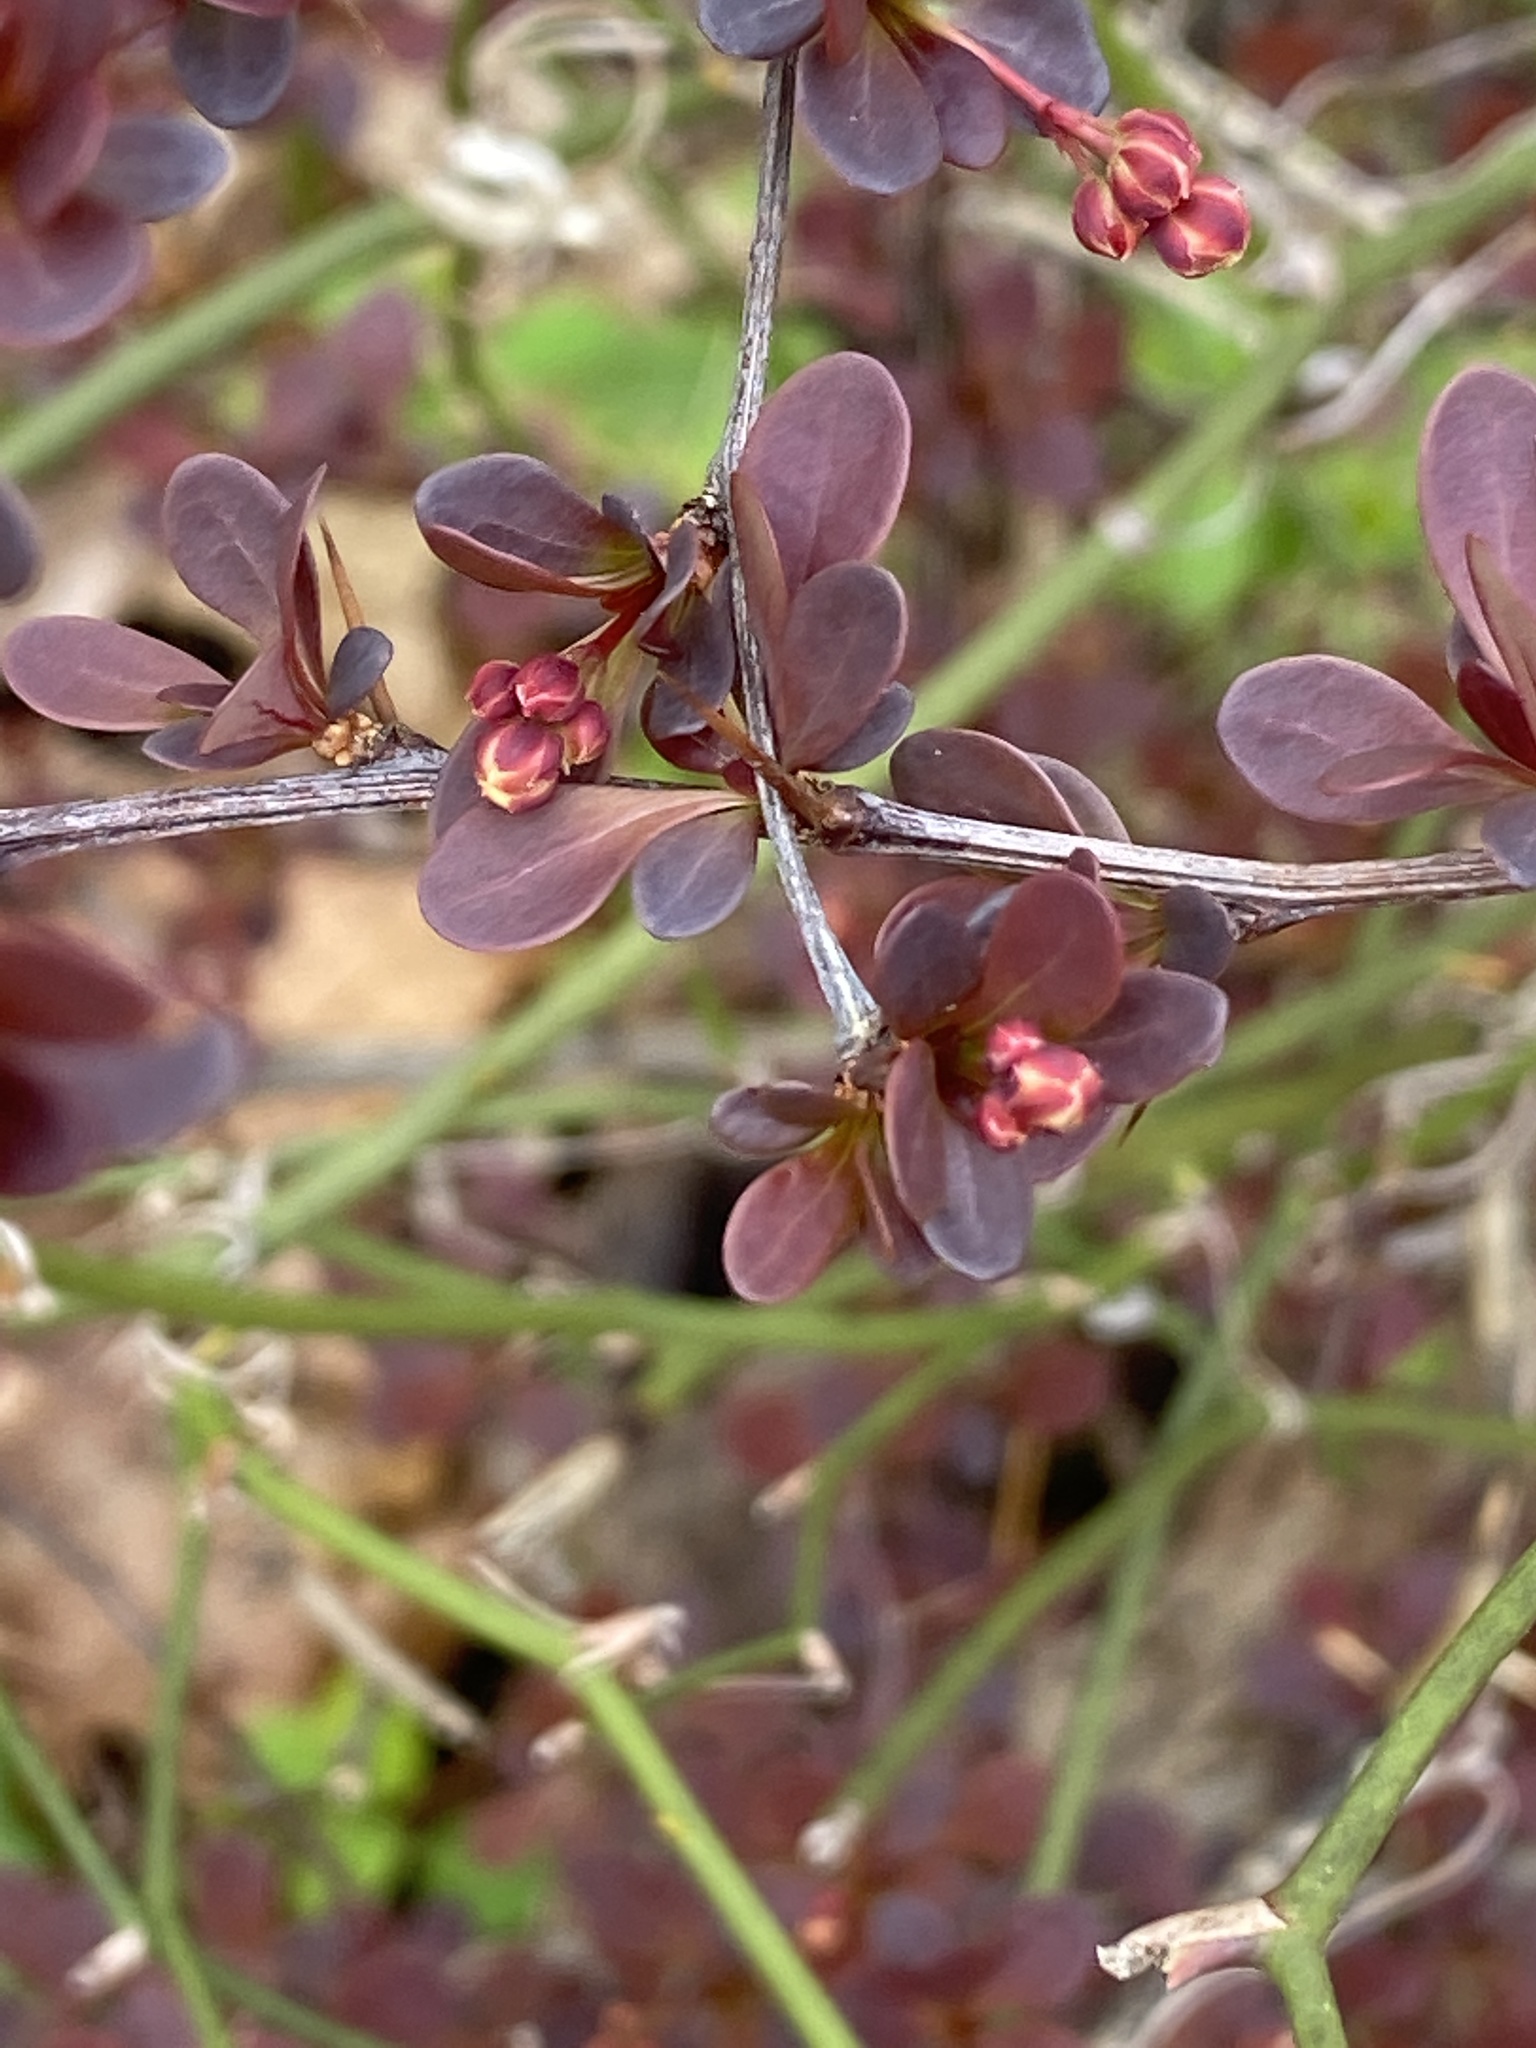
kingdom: Plantae
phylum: Tracheophyta
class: Magnoliopsida
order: Ranunculales
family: Berberidaceae
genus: Berberis
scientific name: Berberis thunbergii
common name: Japanese barberry
